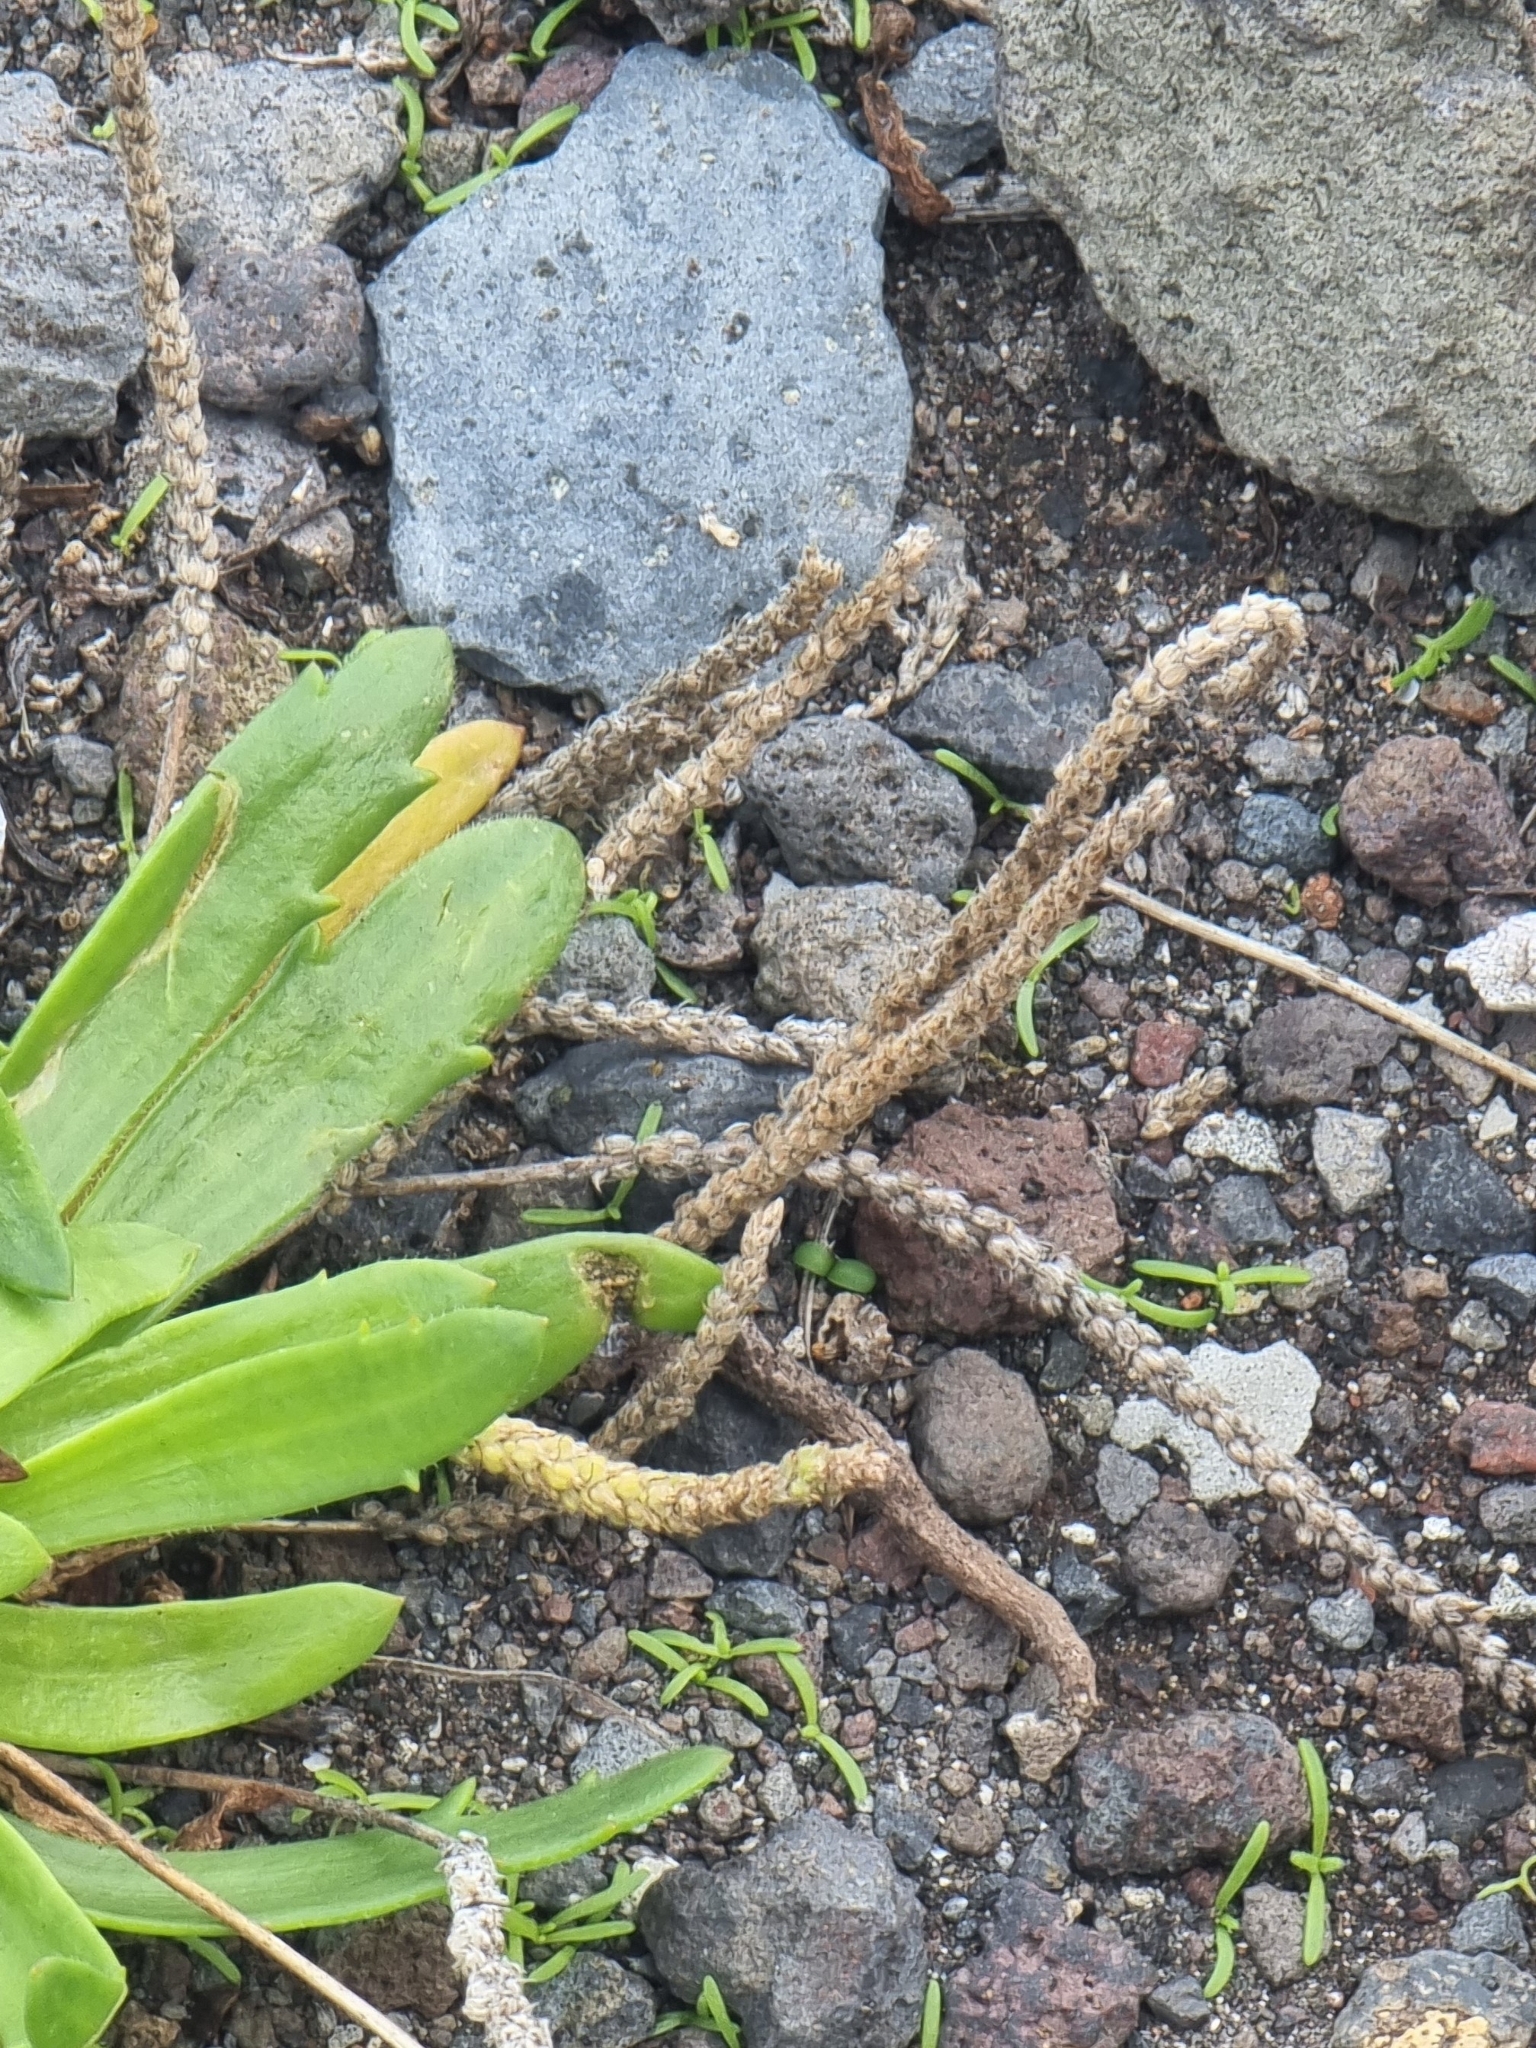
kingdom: Plantae
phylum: Tracheophyta
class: Magnoliopsida
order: Lamiales
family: Plantaginaceae
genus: Plantago
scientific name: Plantago coronopus
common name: Buck's-horn plantain
